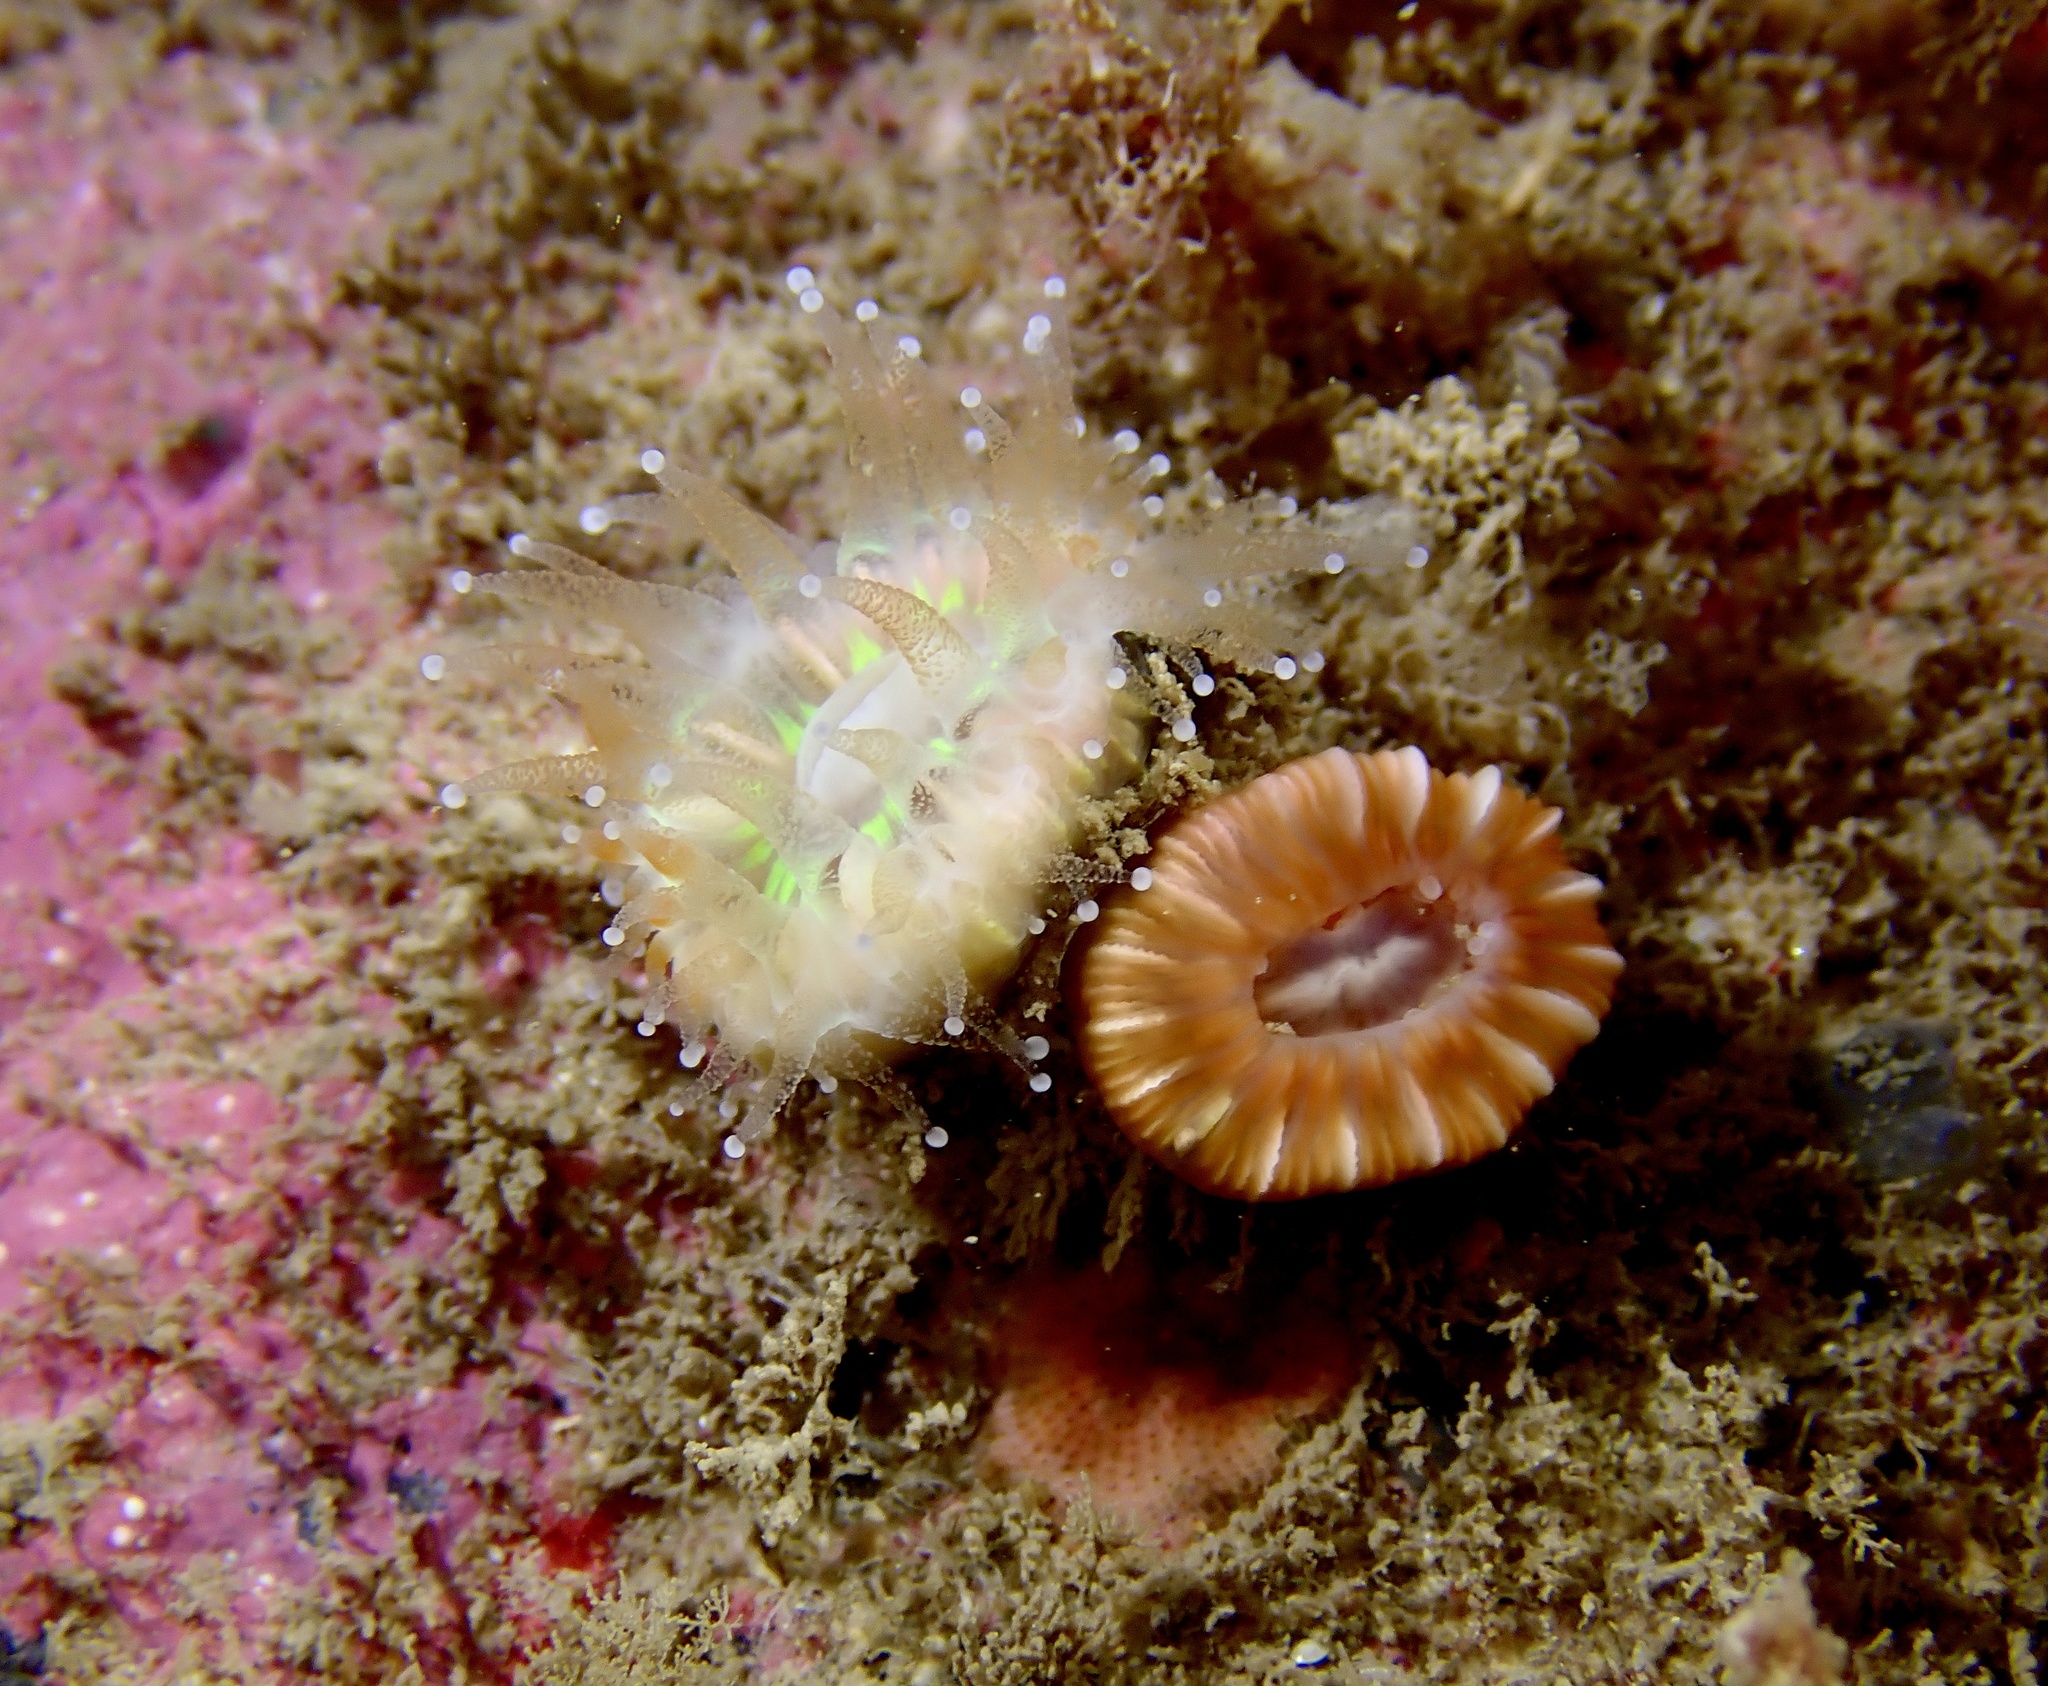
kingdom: Animalia
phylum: Cnidaria
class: Anthozoa
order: Scleractinia
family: Caryophylliidae
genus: Caryophyllia
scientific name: Caryophyllia smithii
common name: Devonshire cup coral
